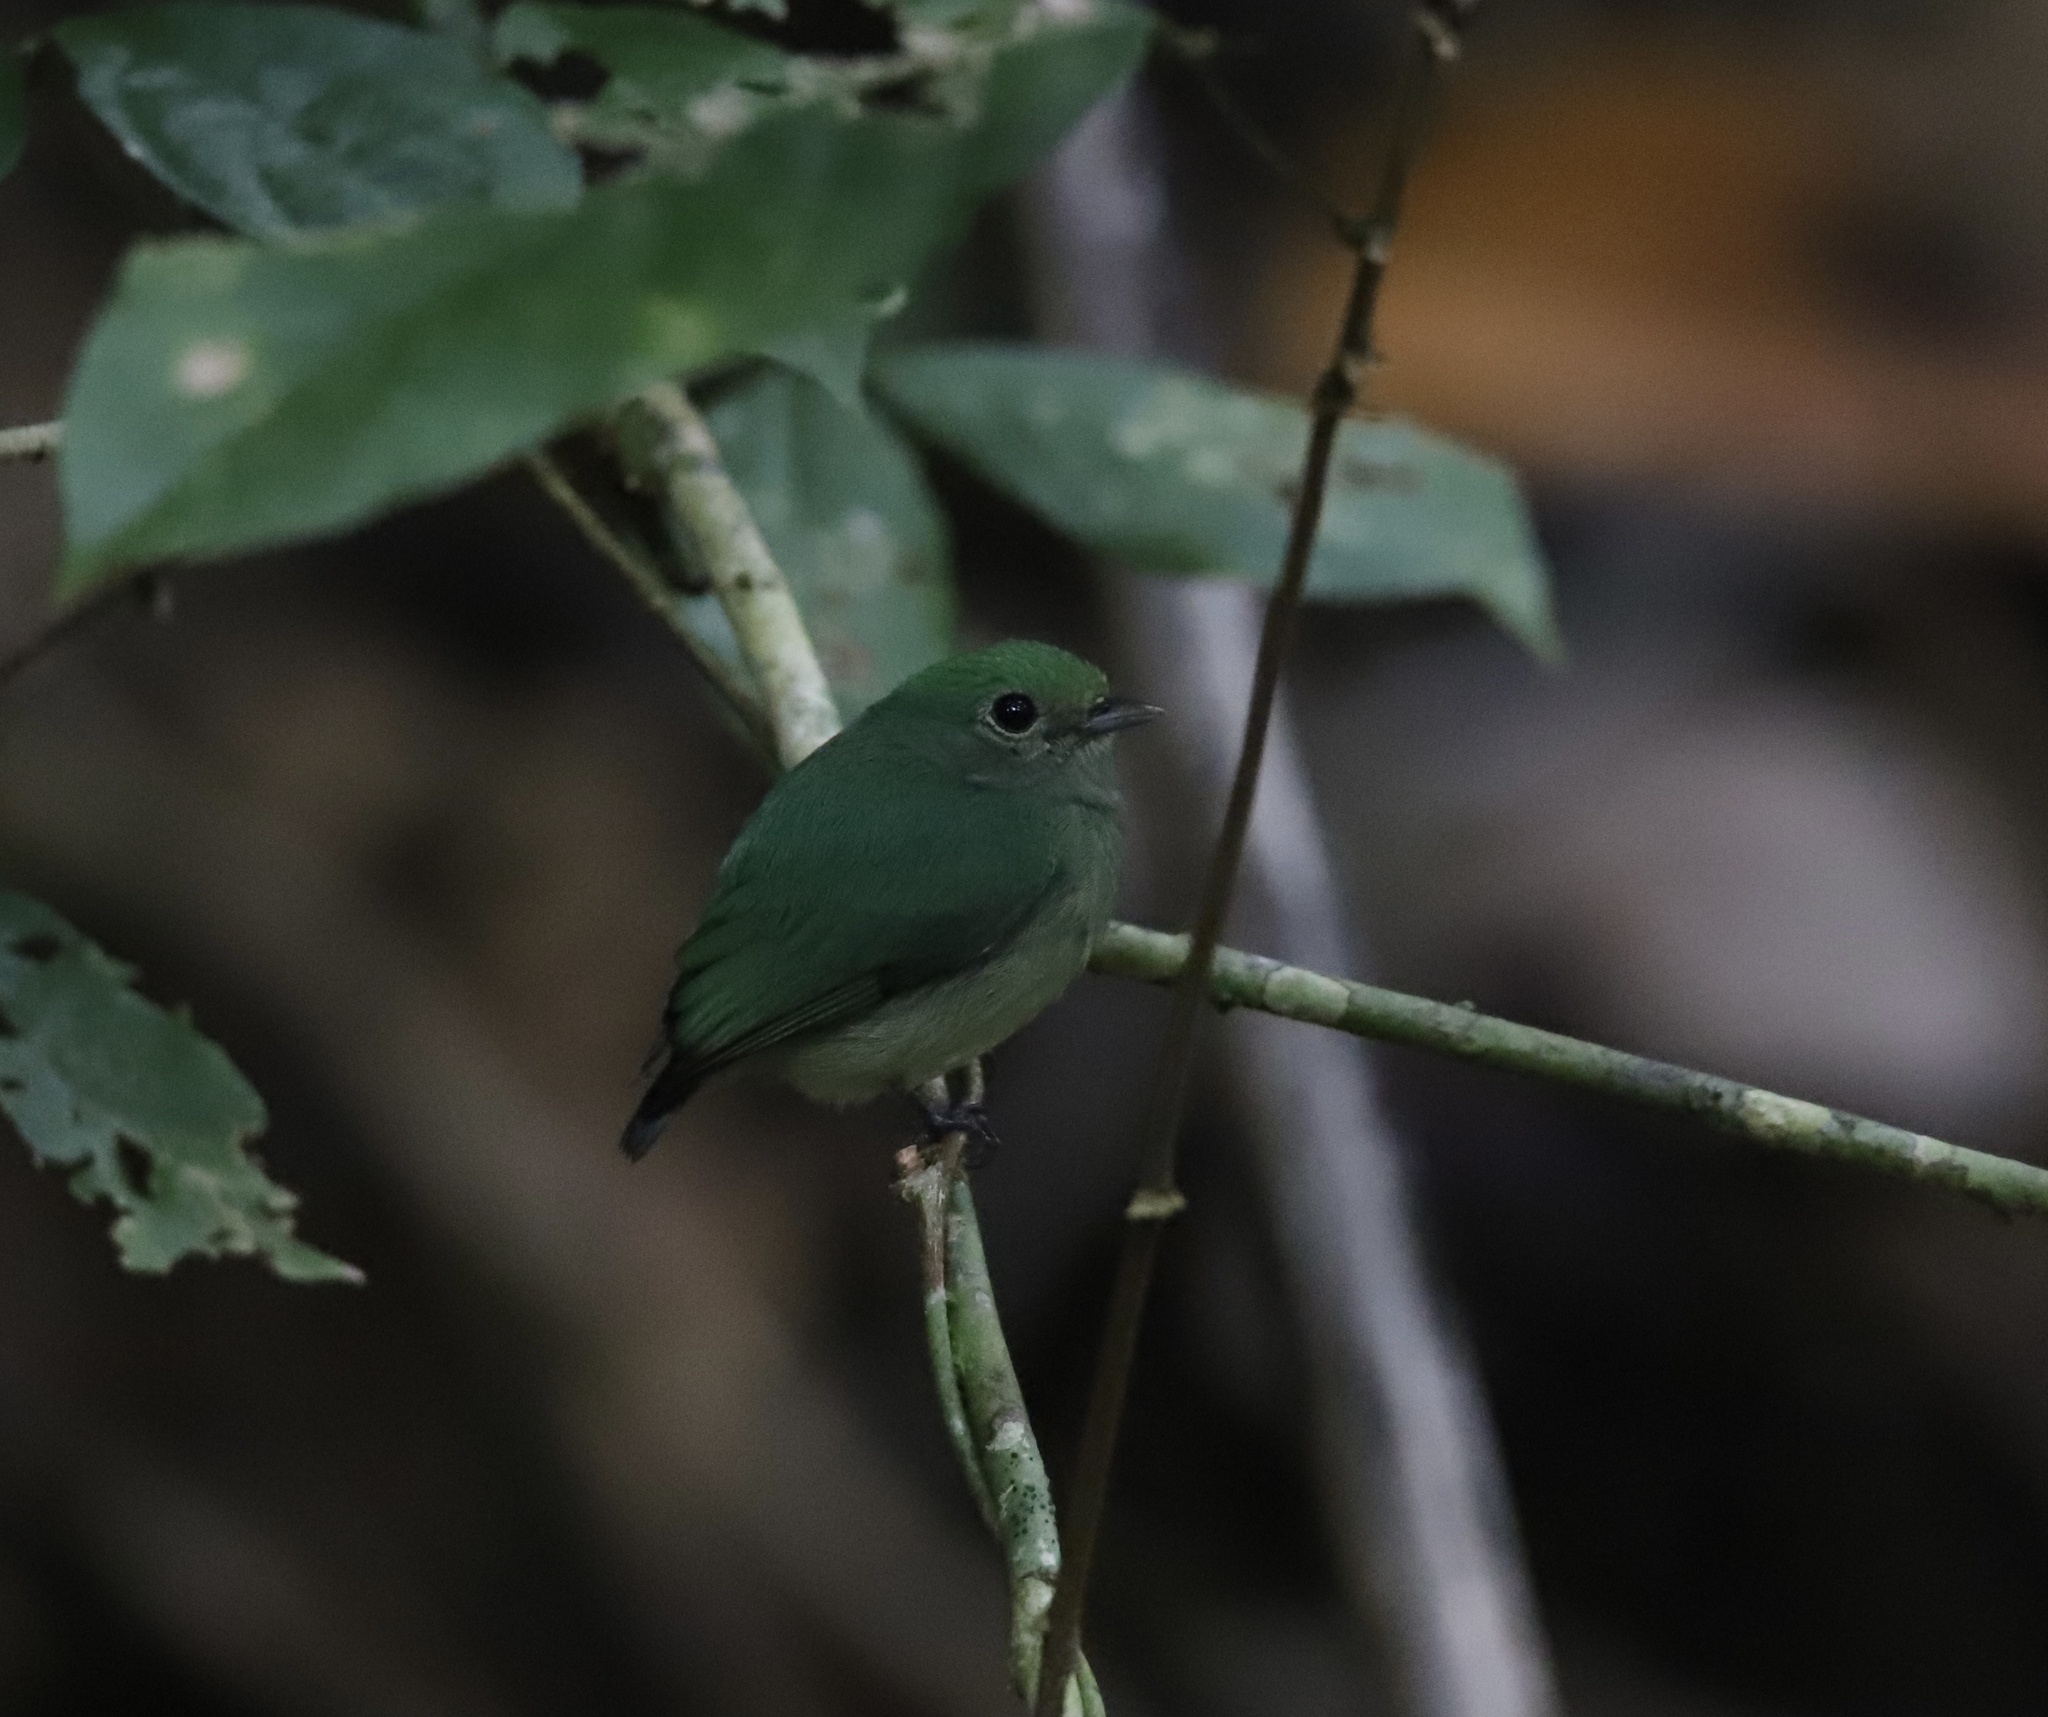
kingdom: Animalia
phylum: Chordata
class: Aves
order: Passeriformes
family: Pipridae
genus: Lepidothrix
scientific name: Lepidothrix coronata
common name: Blue-crowned manakin
